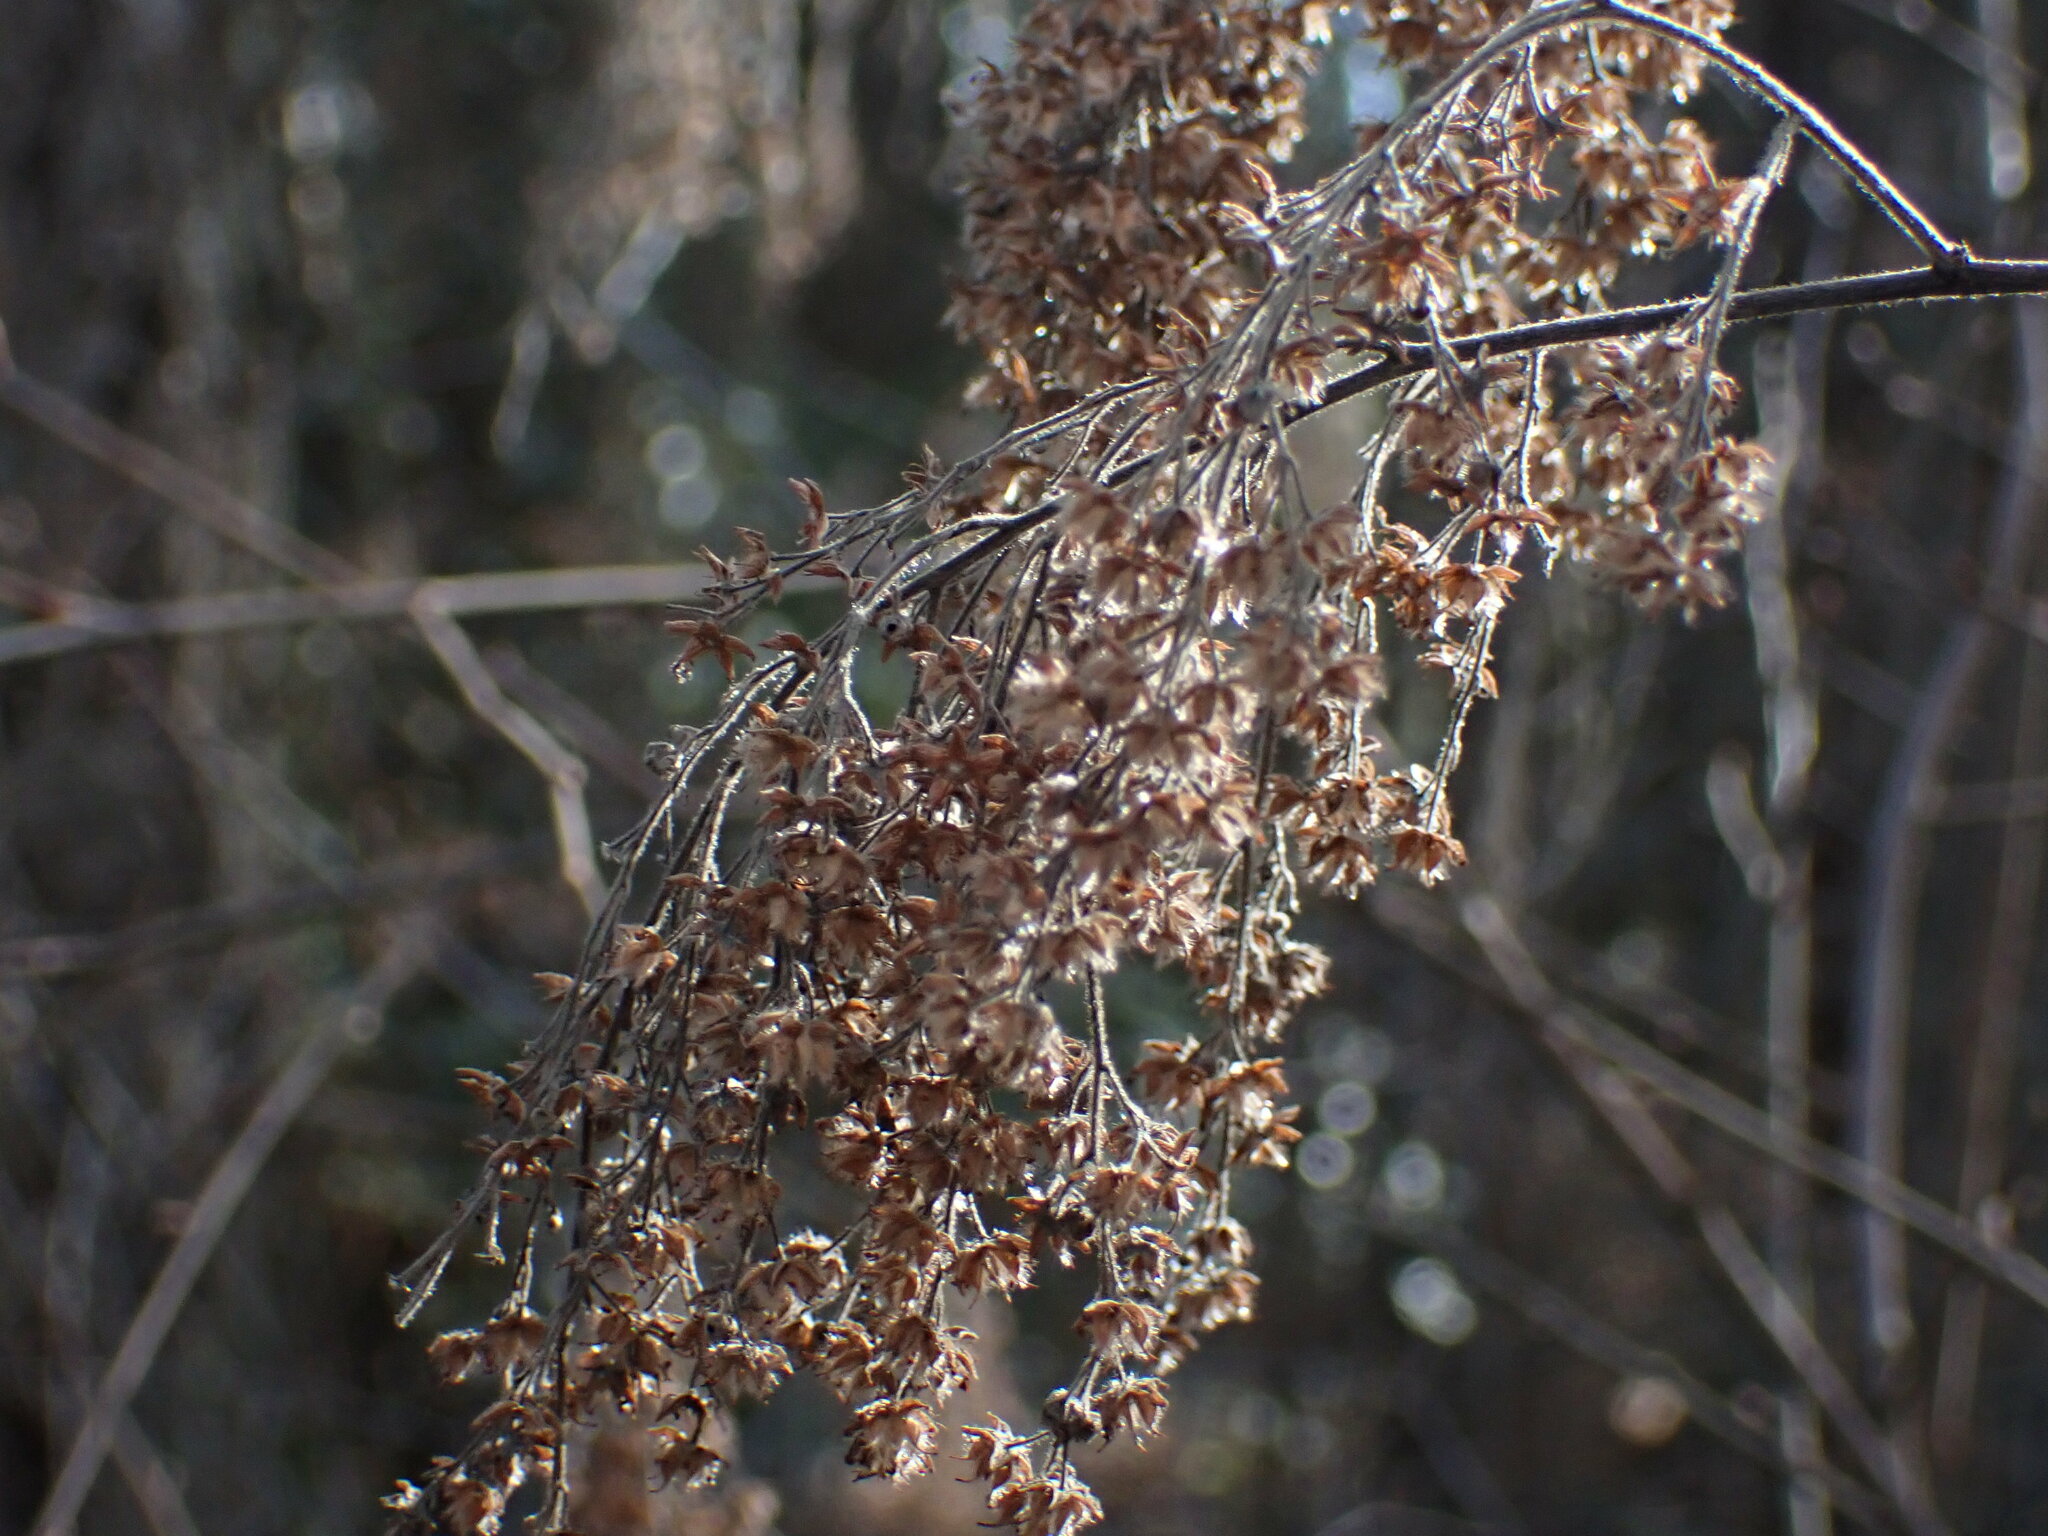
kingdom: Plantae
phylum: Tracheophyta
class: Magnoliopsida
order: Rosales
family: Rosaceae
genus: Holodiscus
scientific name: Holodiscus discolor
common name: Oceanspray
